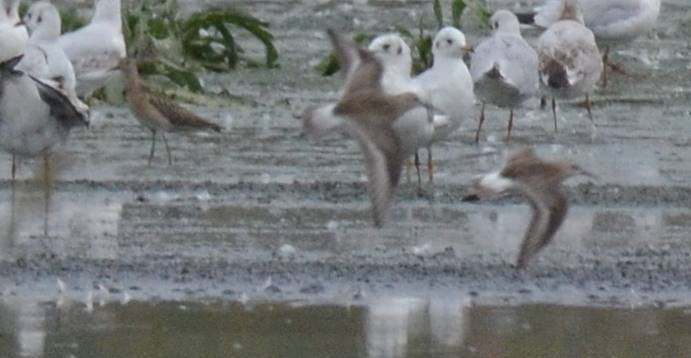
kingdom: Animalia
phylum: Chordata
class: Aves
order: Charadriiformes
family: Scolopacidae
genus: Calidris
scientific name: Calidris pugnax
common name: Ruff
